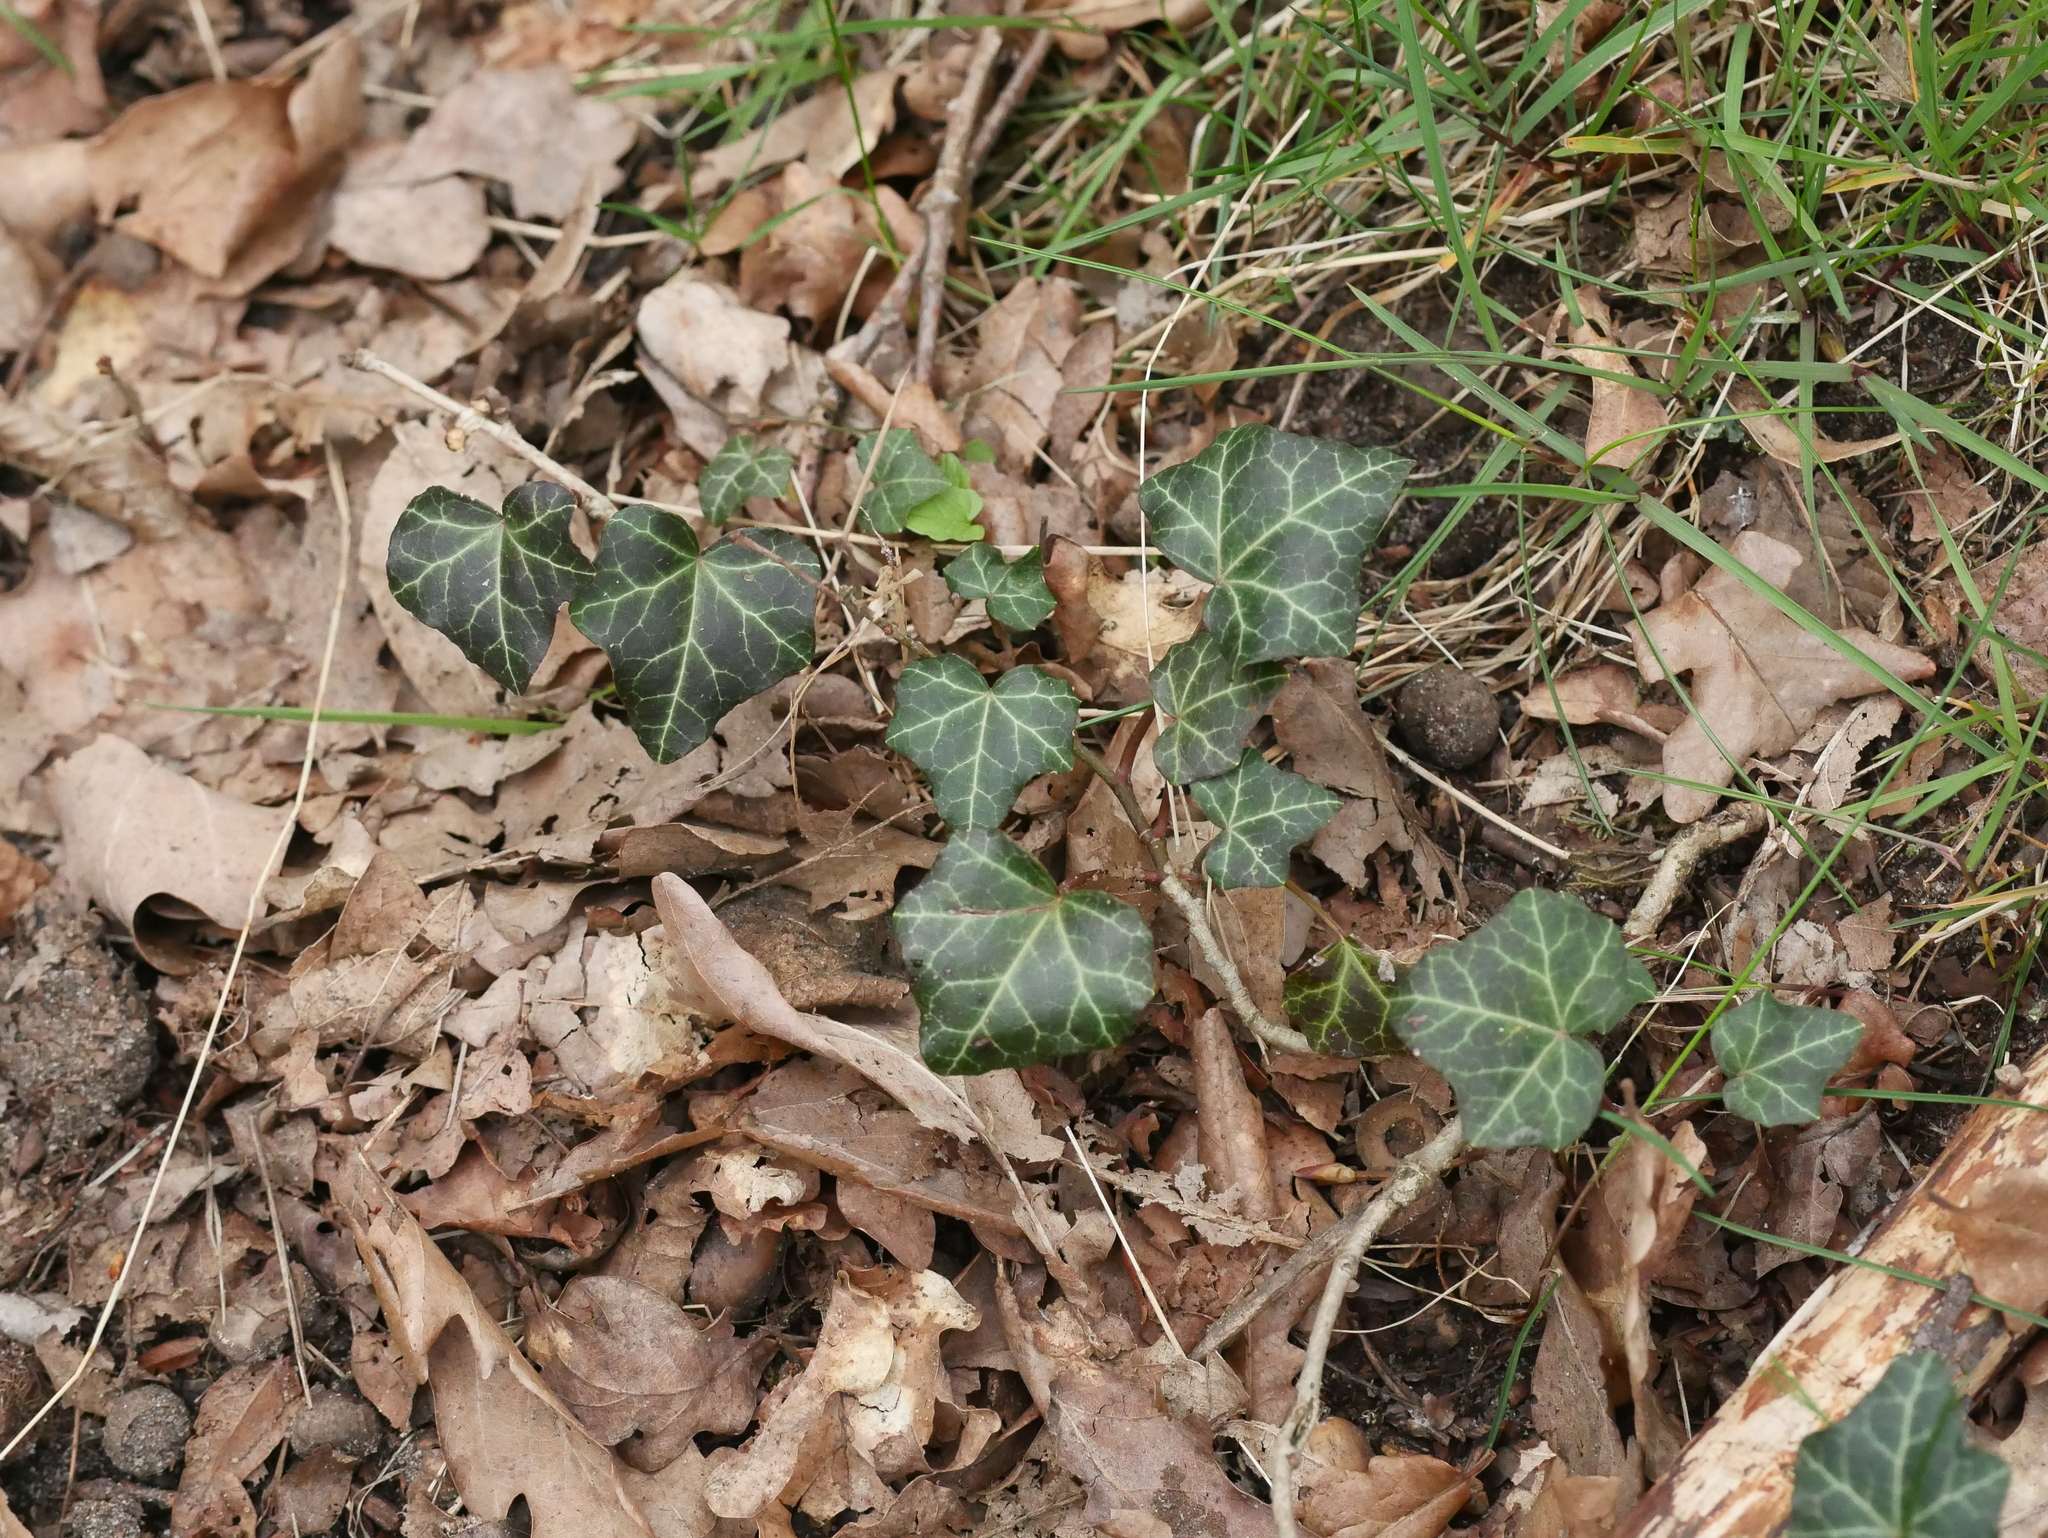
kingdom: Plantae
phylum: Tracheophyta
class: Magnoliopsida
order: Apiales
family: Araliaceae
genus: Hedera
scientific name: Hedera helix
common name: Ivy
